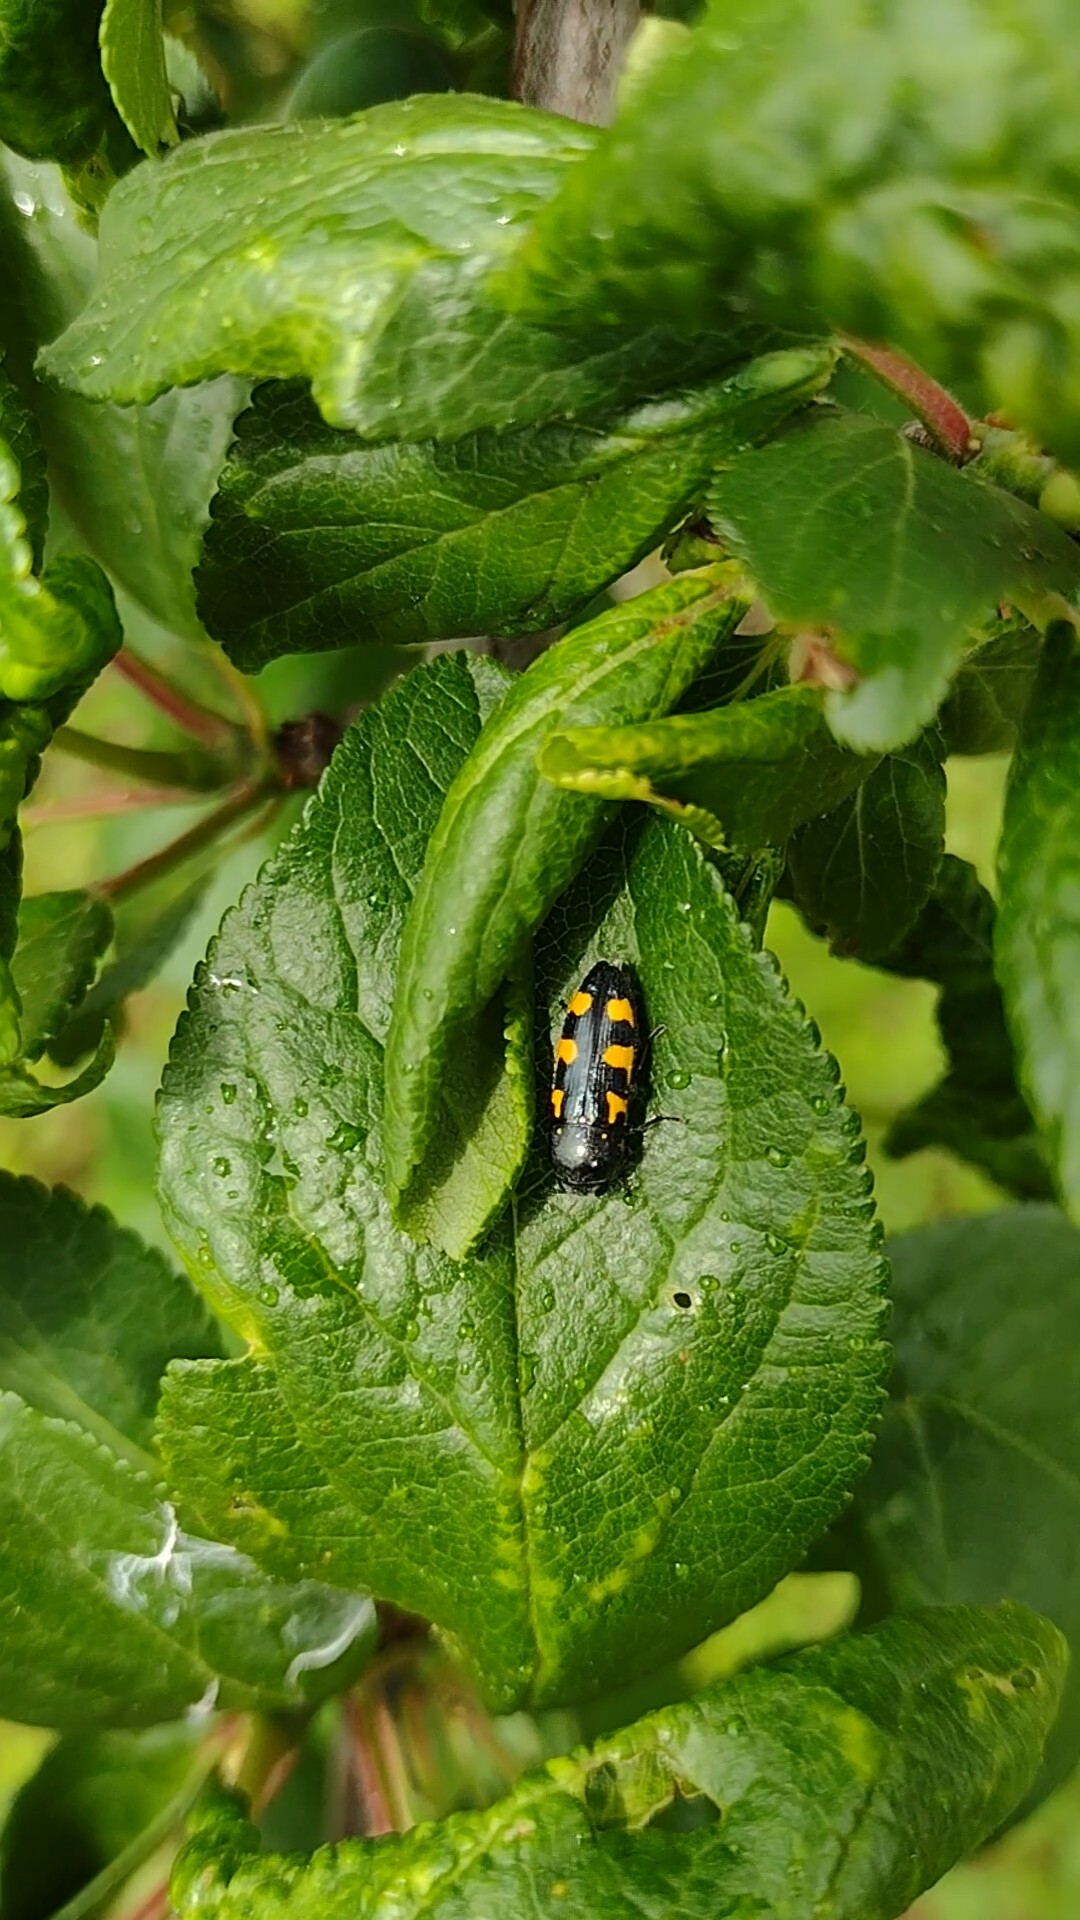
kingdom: Animalia
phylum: Arthropoda
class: Insecta
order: Coleoptera
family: Buprestidae
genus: Ptosima
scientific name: Ptosima undecimmaculata
